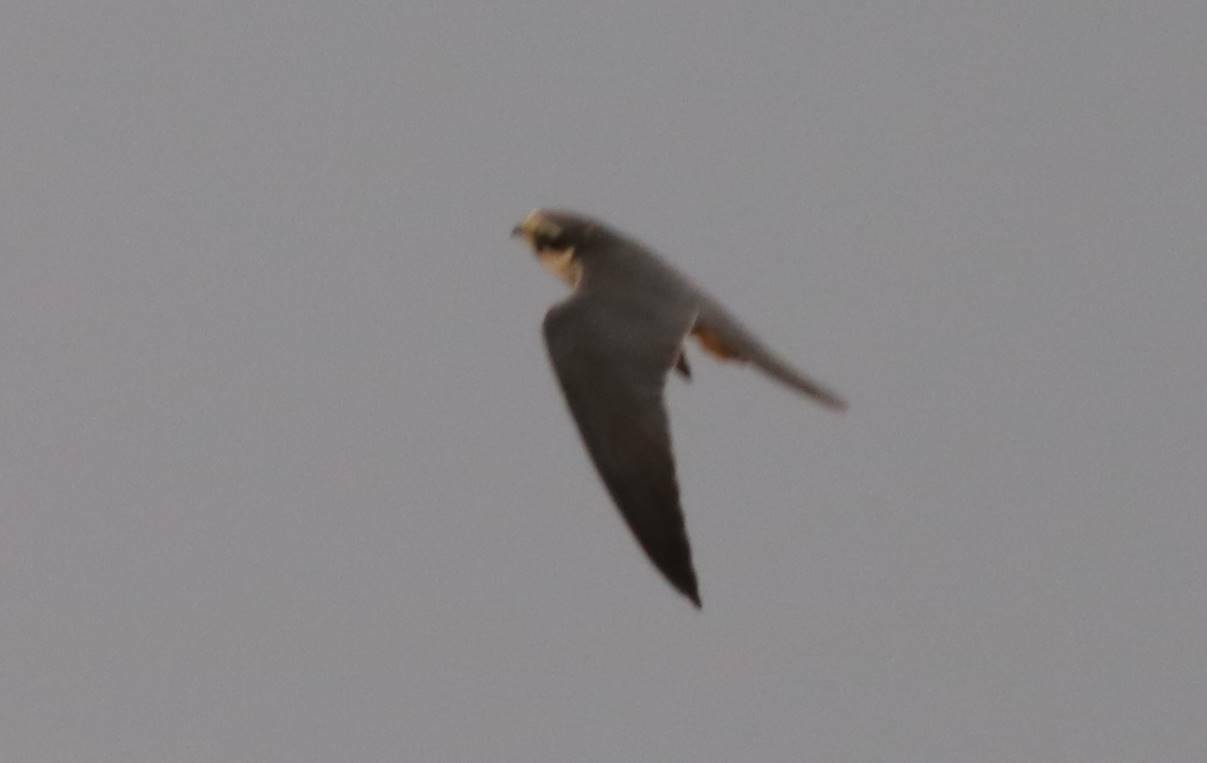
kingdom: Animalia
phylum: Chordata
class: Aves
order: Falconiformes
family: Falconidae
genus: Falco
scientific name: Falco subbuteo
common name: Eurasian hobby
